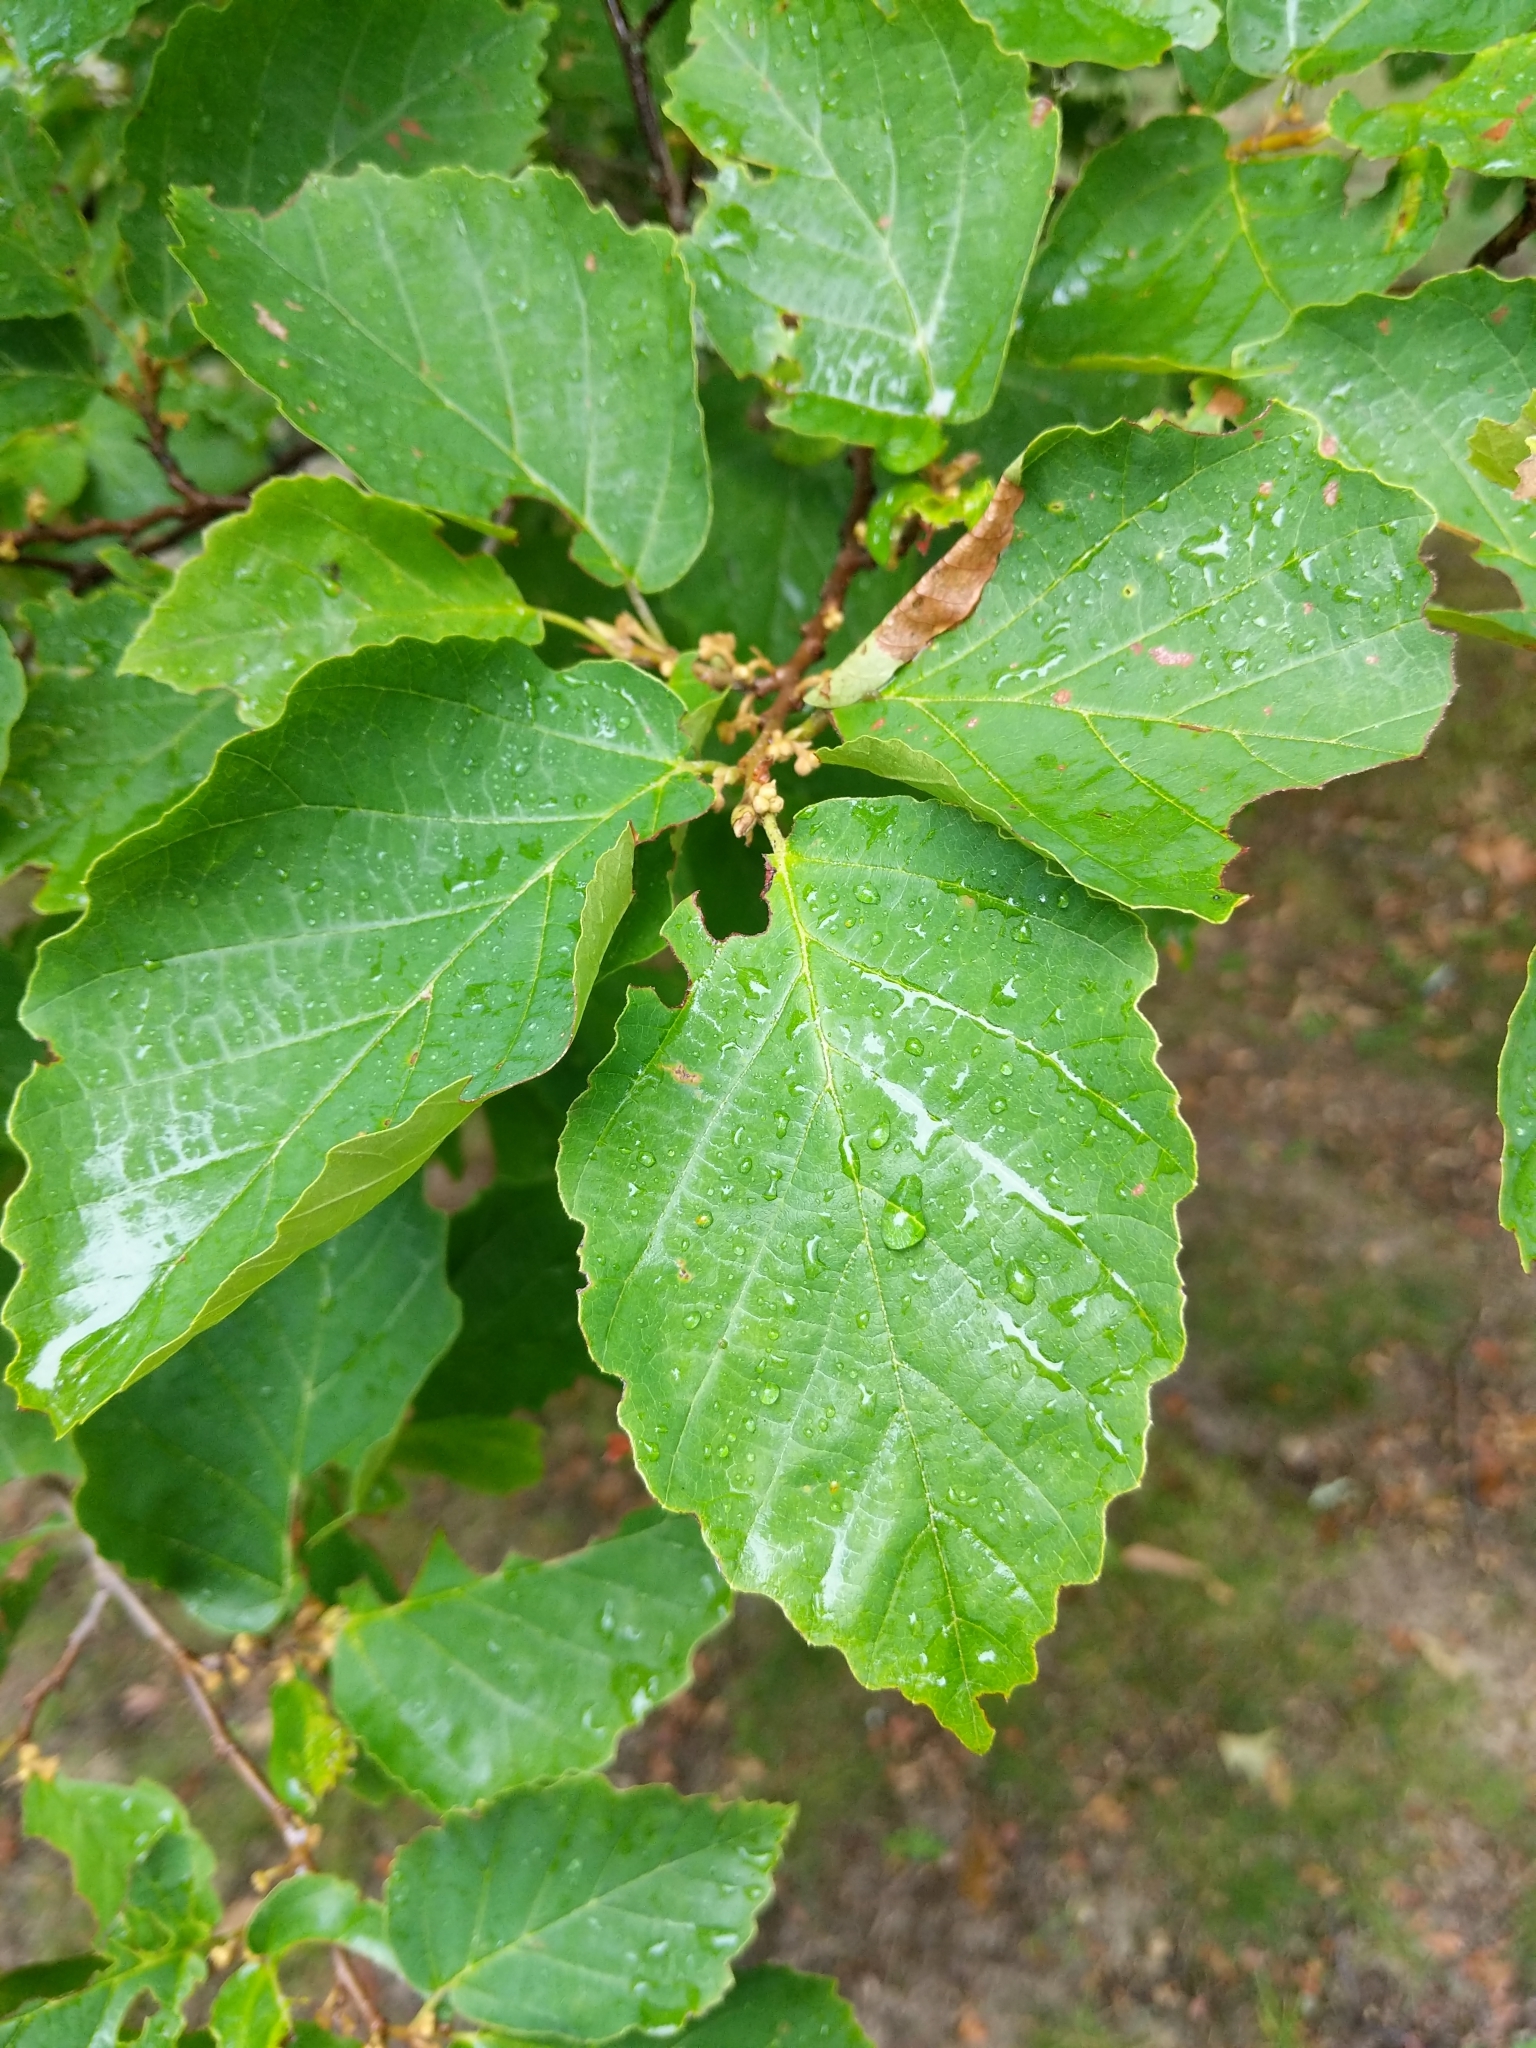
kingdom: Plantae
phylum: Tracheophyta
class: Magnoliopsida
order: Saxifragales
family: Hamamelidaceae
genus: Hamamelis
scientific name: Hamamelis virginiana
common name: Witch-hazel
